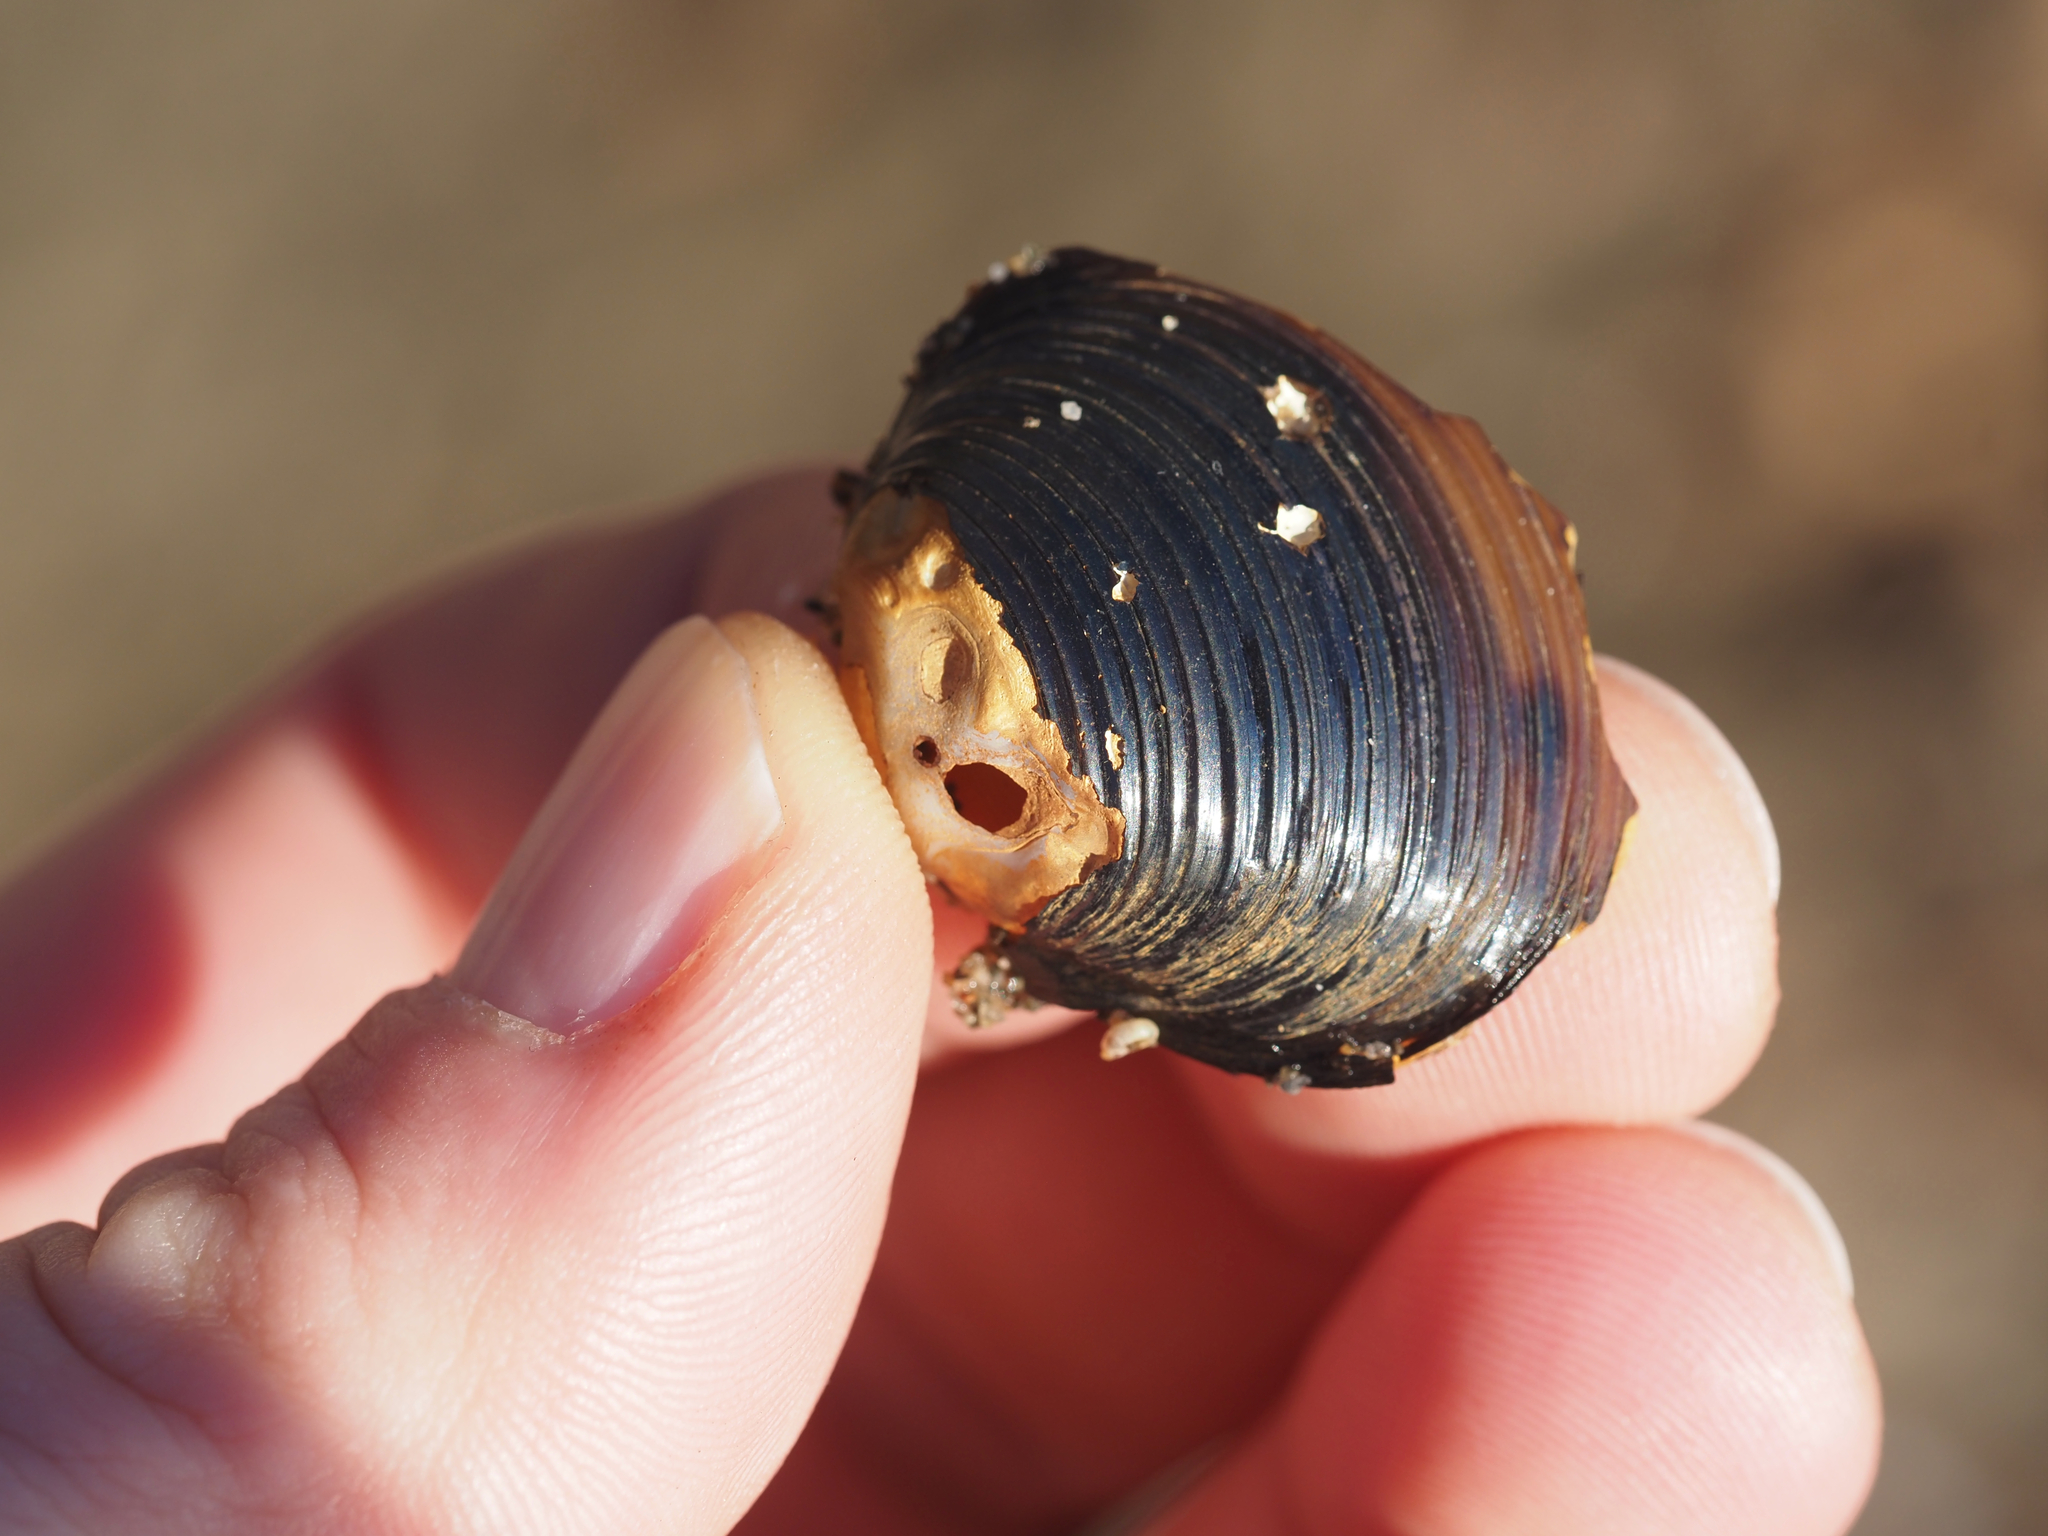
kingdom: Animalia
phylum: Mollusca
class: Bivalvia
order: Venerida
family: Cyrenidae
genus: Corbicula
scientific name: Corbicula fluminea
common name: Asian clam
